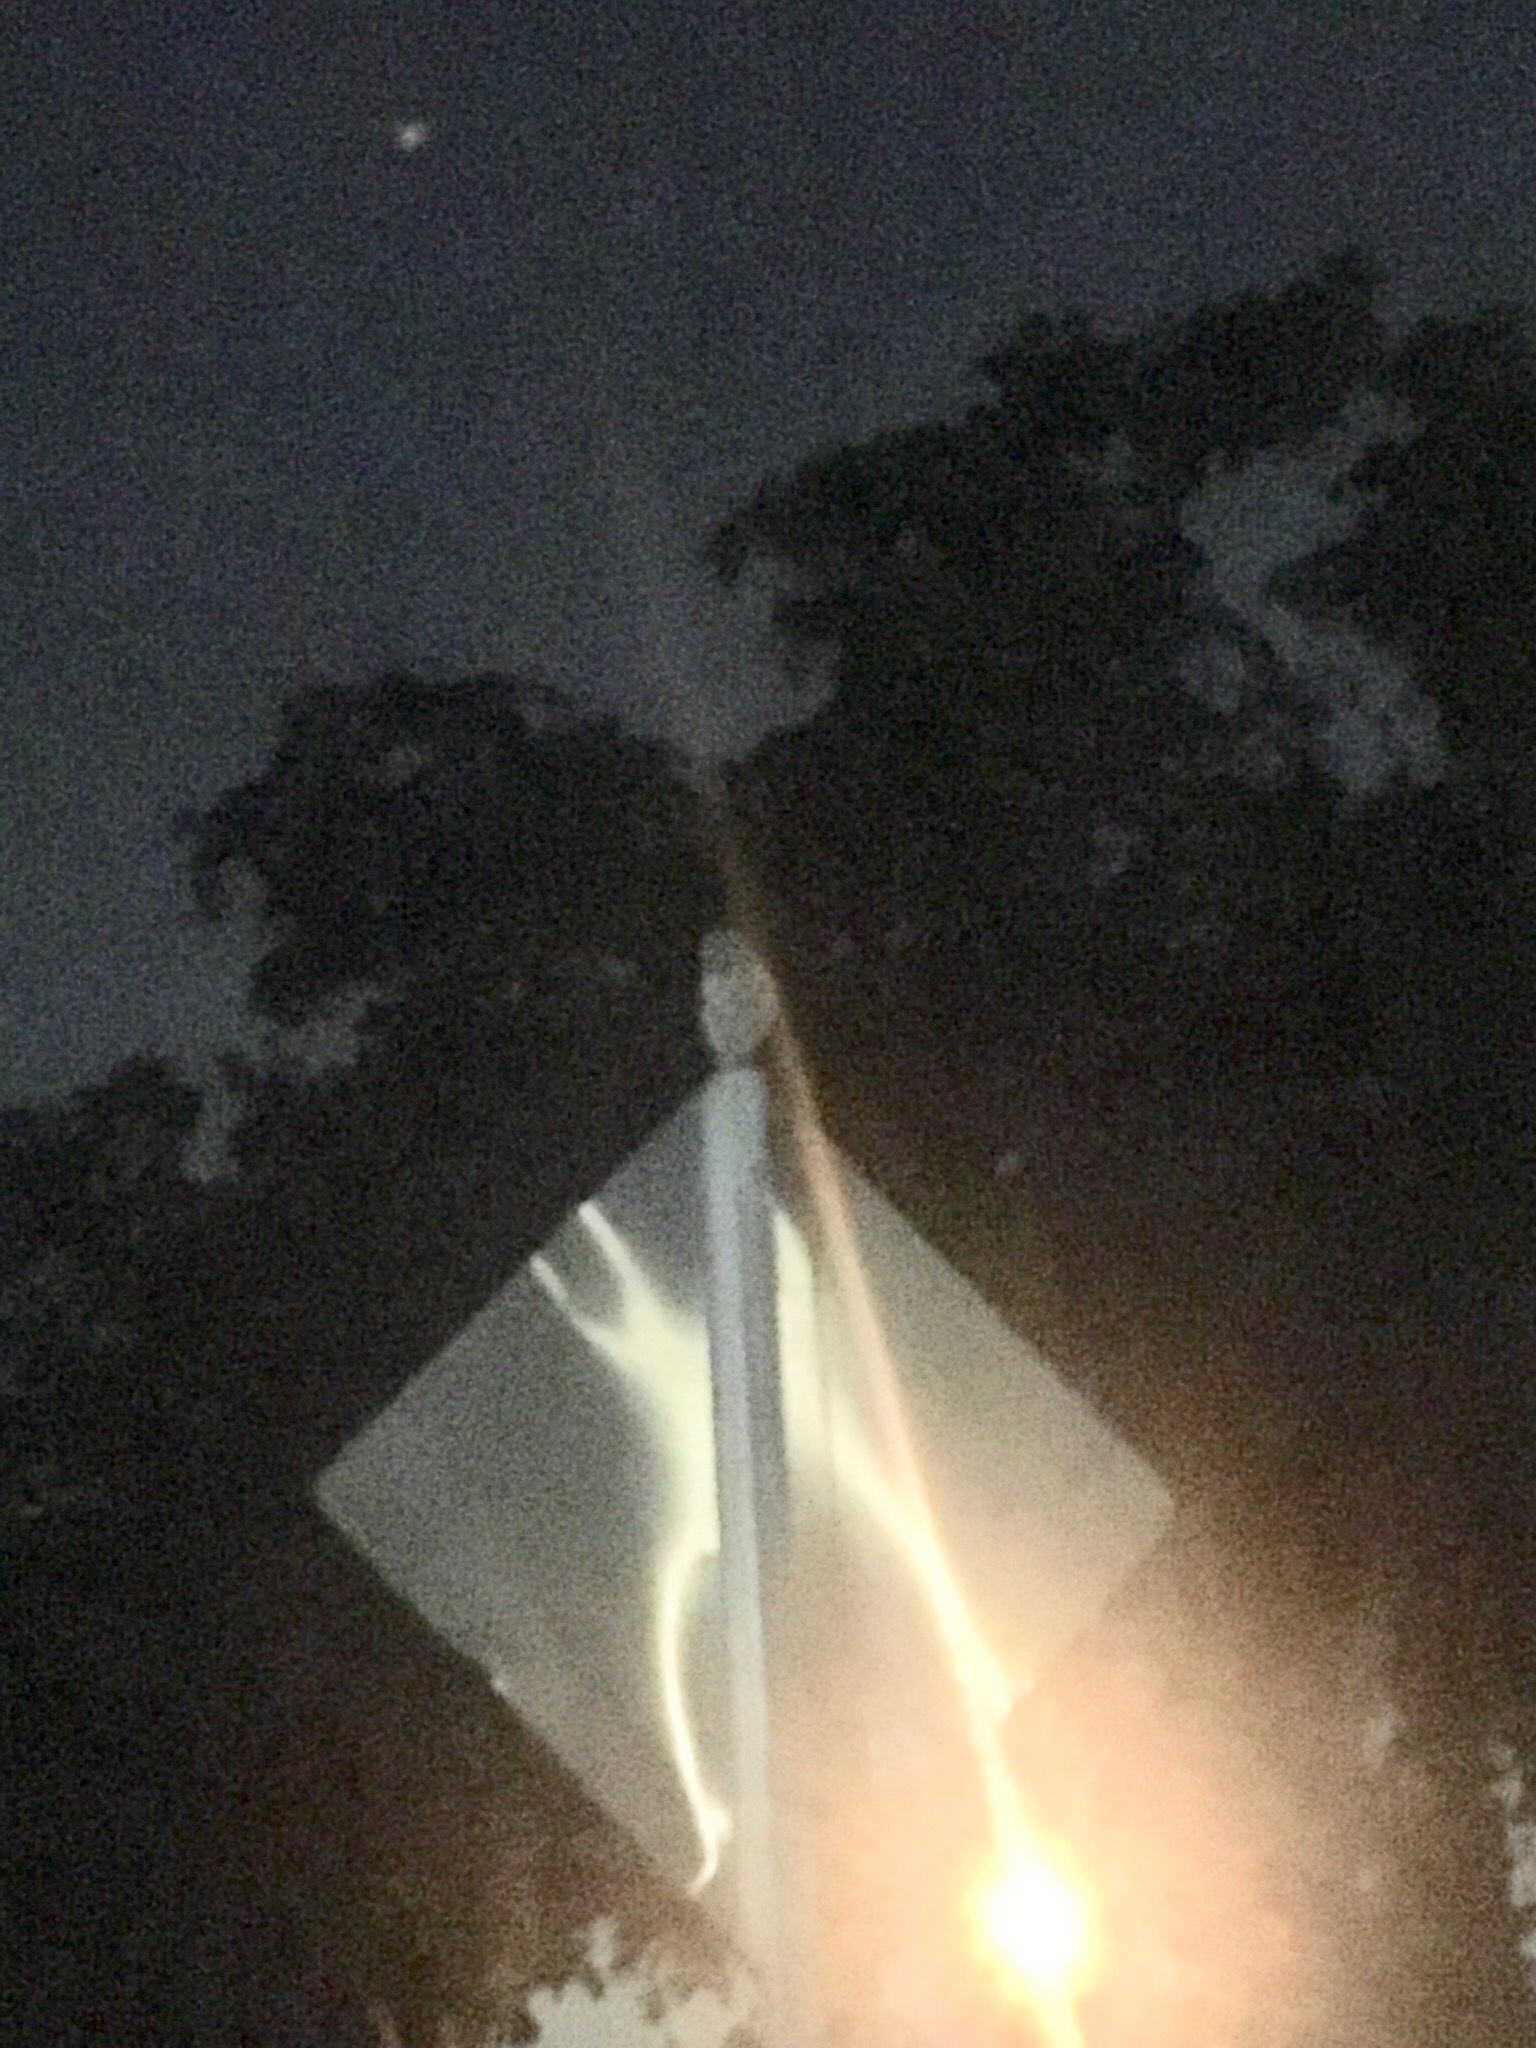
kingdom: Animalia
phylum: Chordata
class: Aves
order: Strigiformes
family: Strigidae
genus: Athene
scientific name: Athene cunicularia
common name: Burrowing owl
